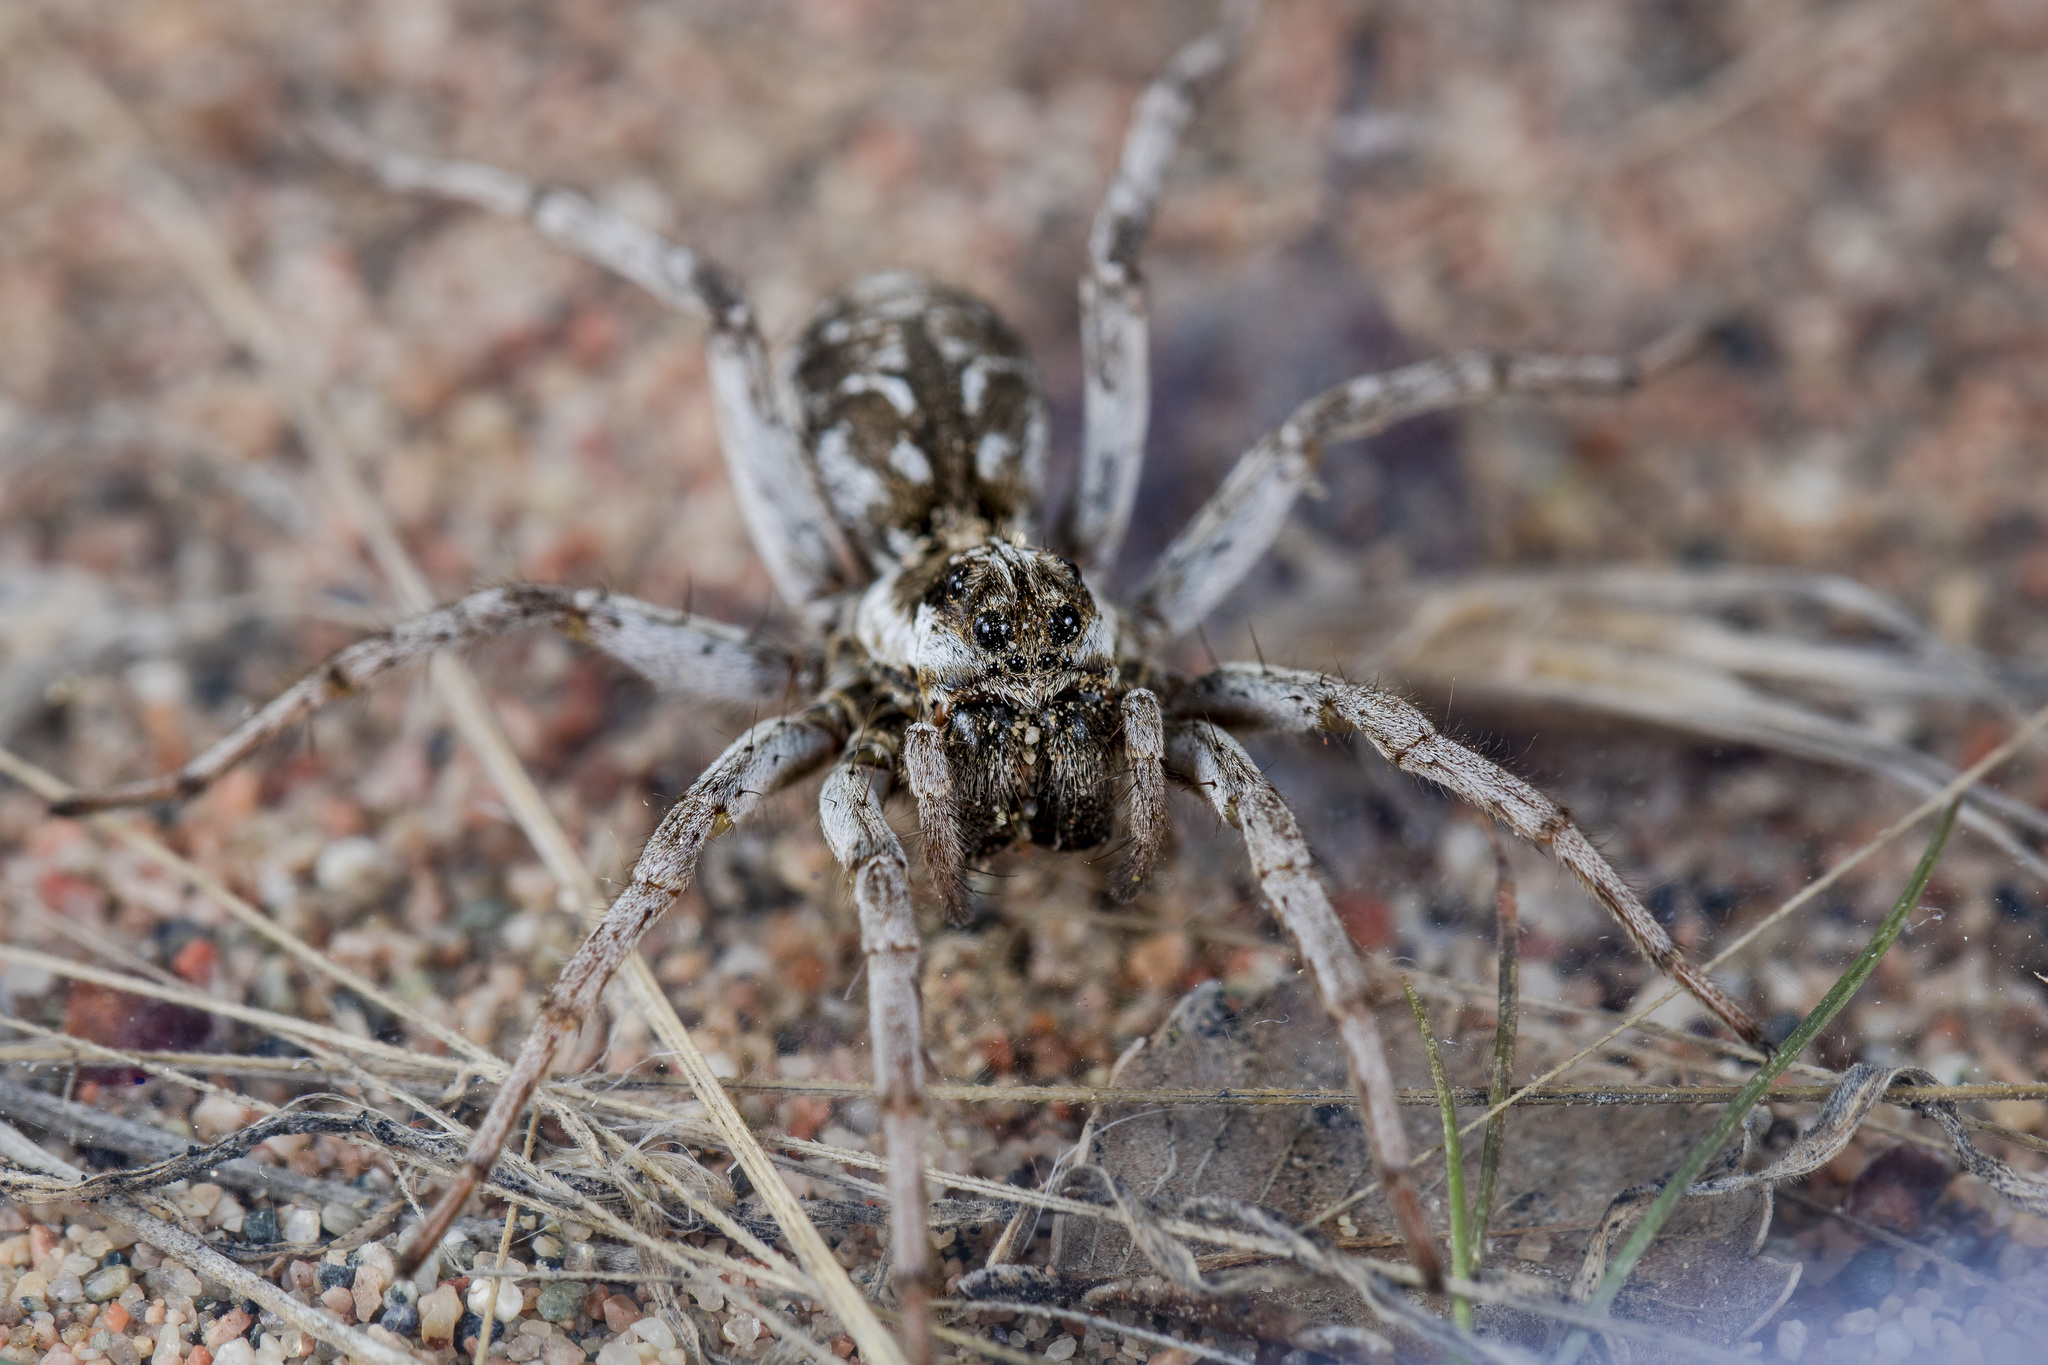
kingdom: Animalia
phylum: Arthropoda
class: Arachnida
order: Araneae
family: Lycosidae
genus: Alopecosa
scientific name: Alopecosa marikovskyi
